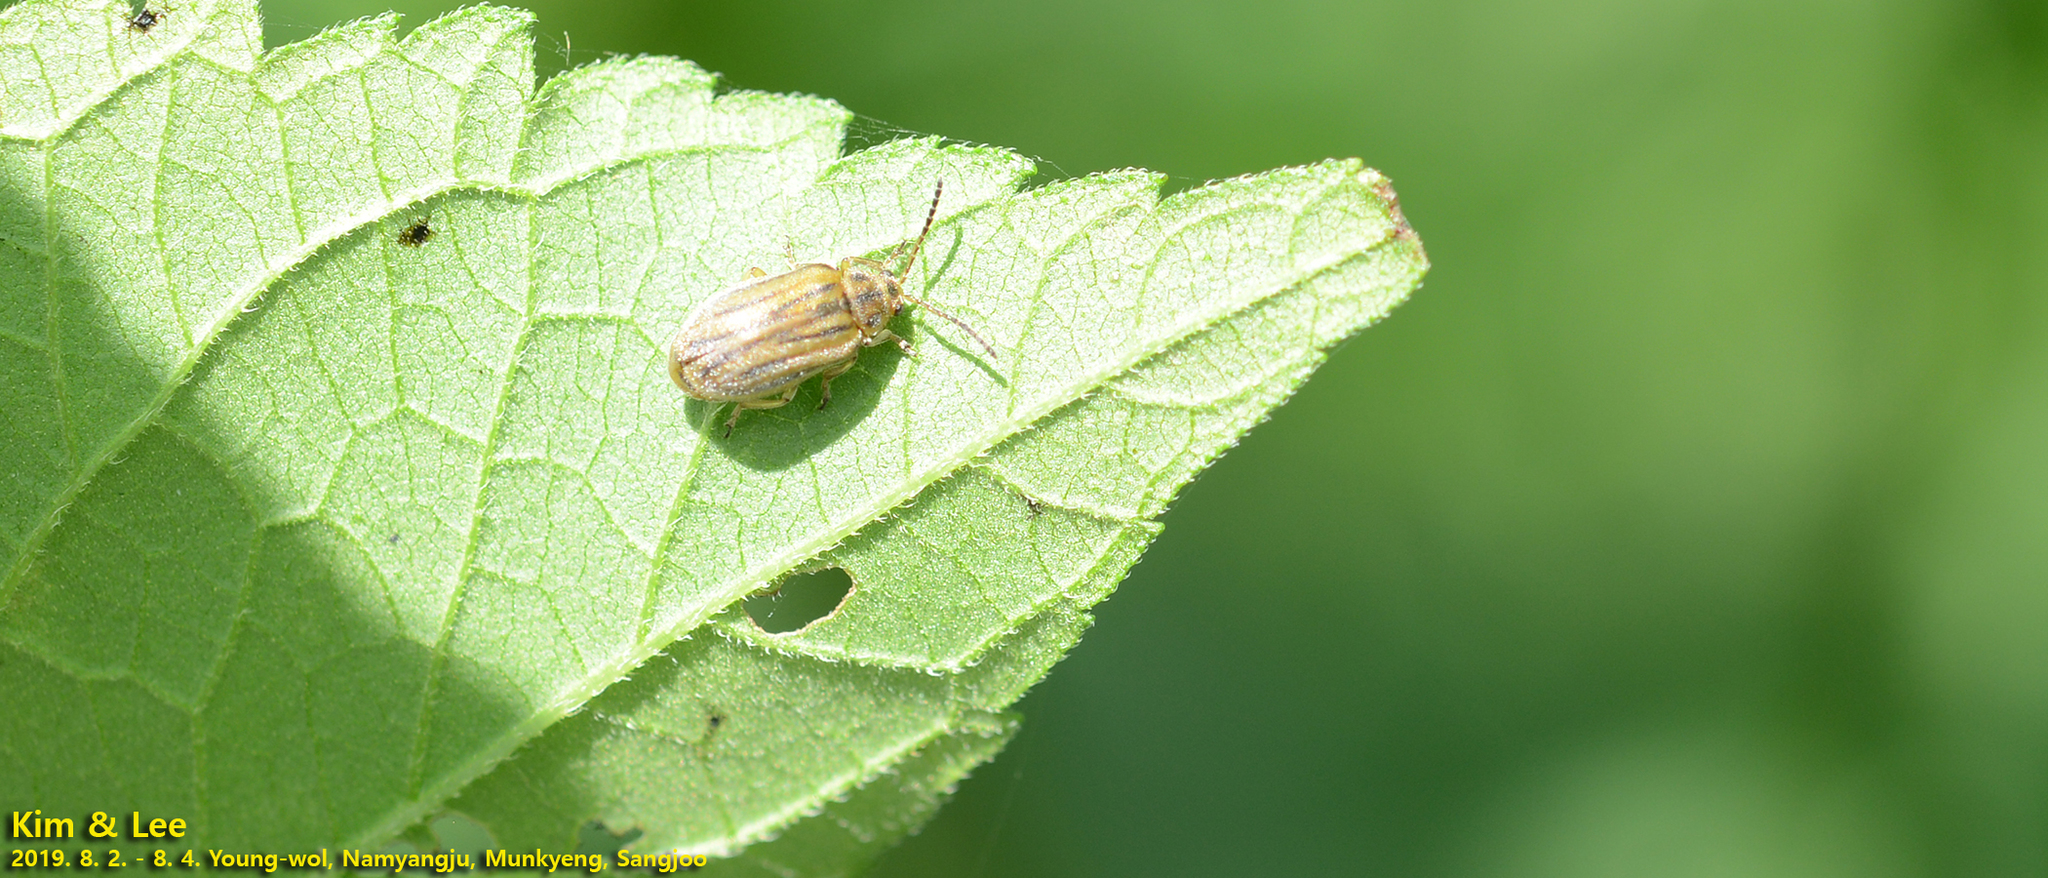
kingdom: Animalia
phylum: Arthropoda
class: Insecta
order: Coleoptera
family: Chrysomelidae
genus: Ophraella
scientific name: Ophraella communa
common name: Ragweed leaf beetle
